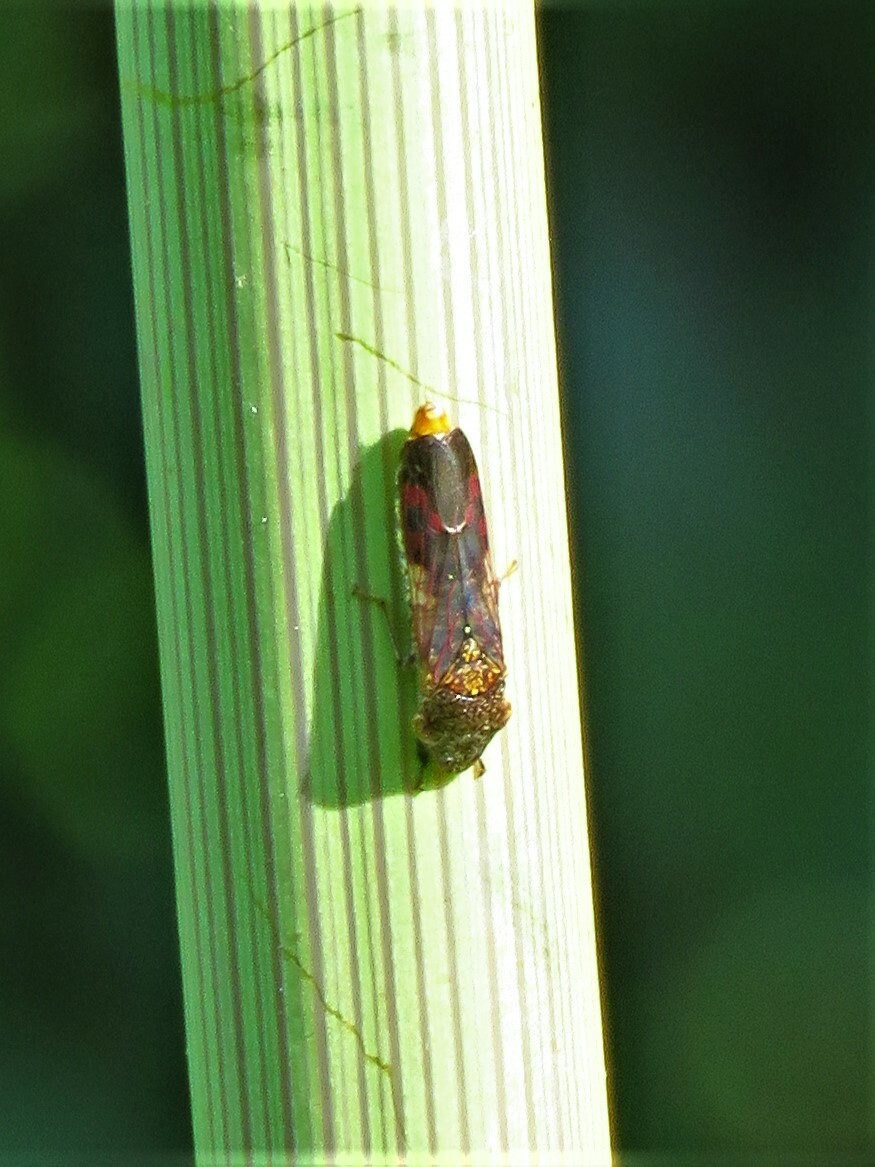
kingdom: Animalia
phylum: Arthropoda
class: Insecta
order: Hemiptera
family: Cicadellidae
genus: Homalodisca
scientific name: Homalodisca vitripennis
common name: Glassy-winged sharpshooter
